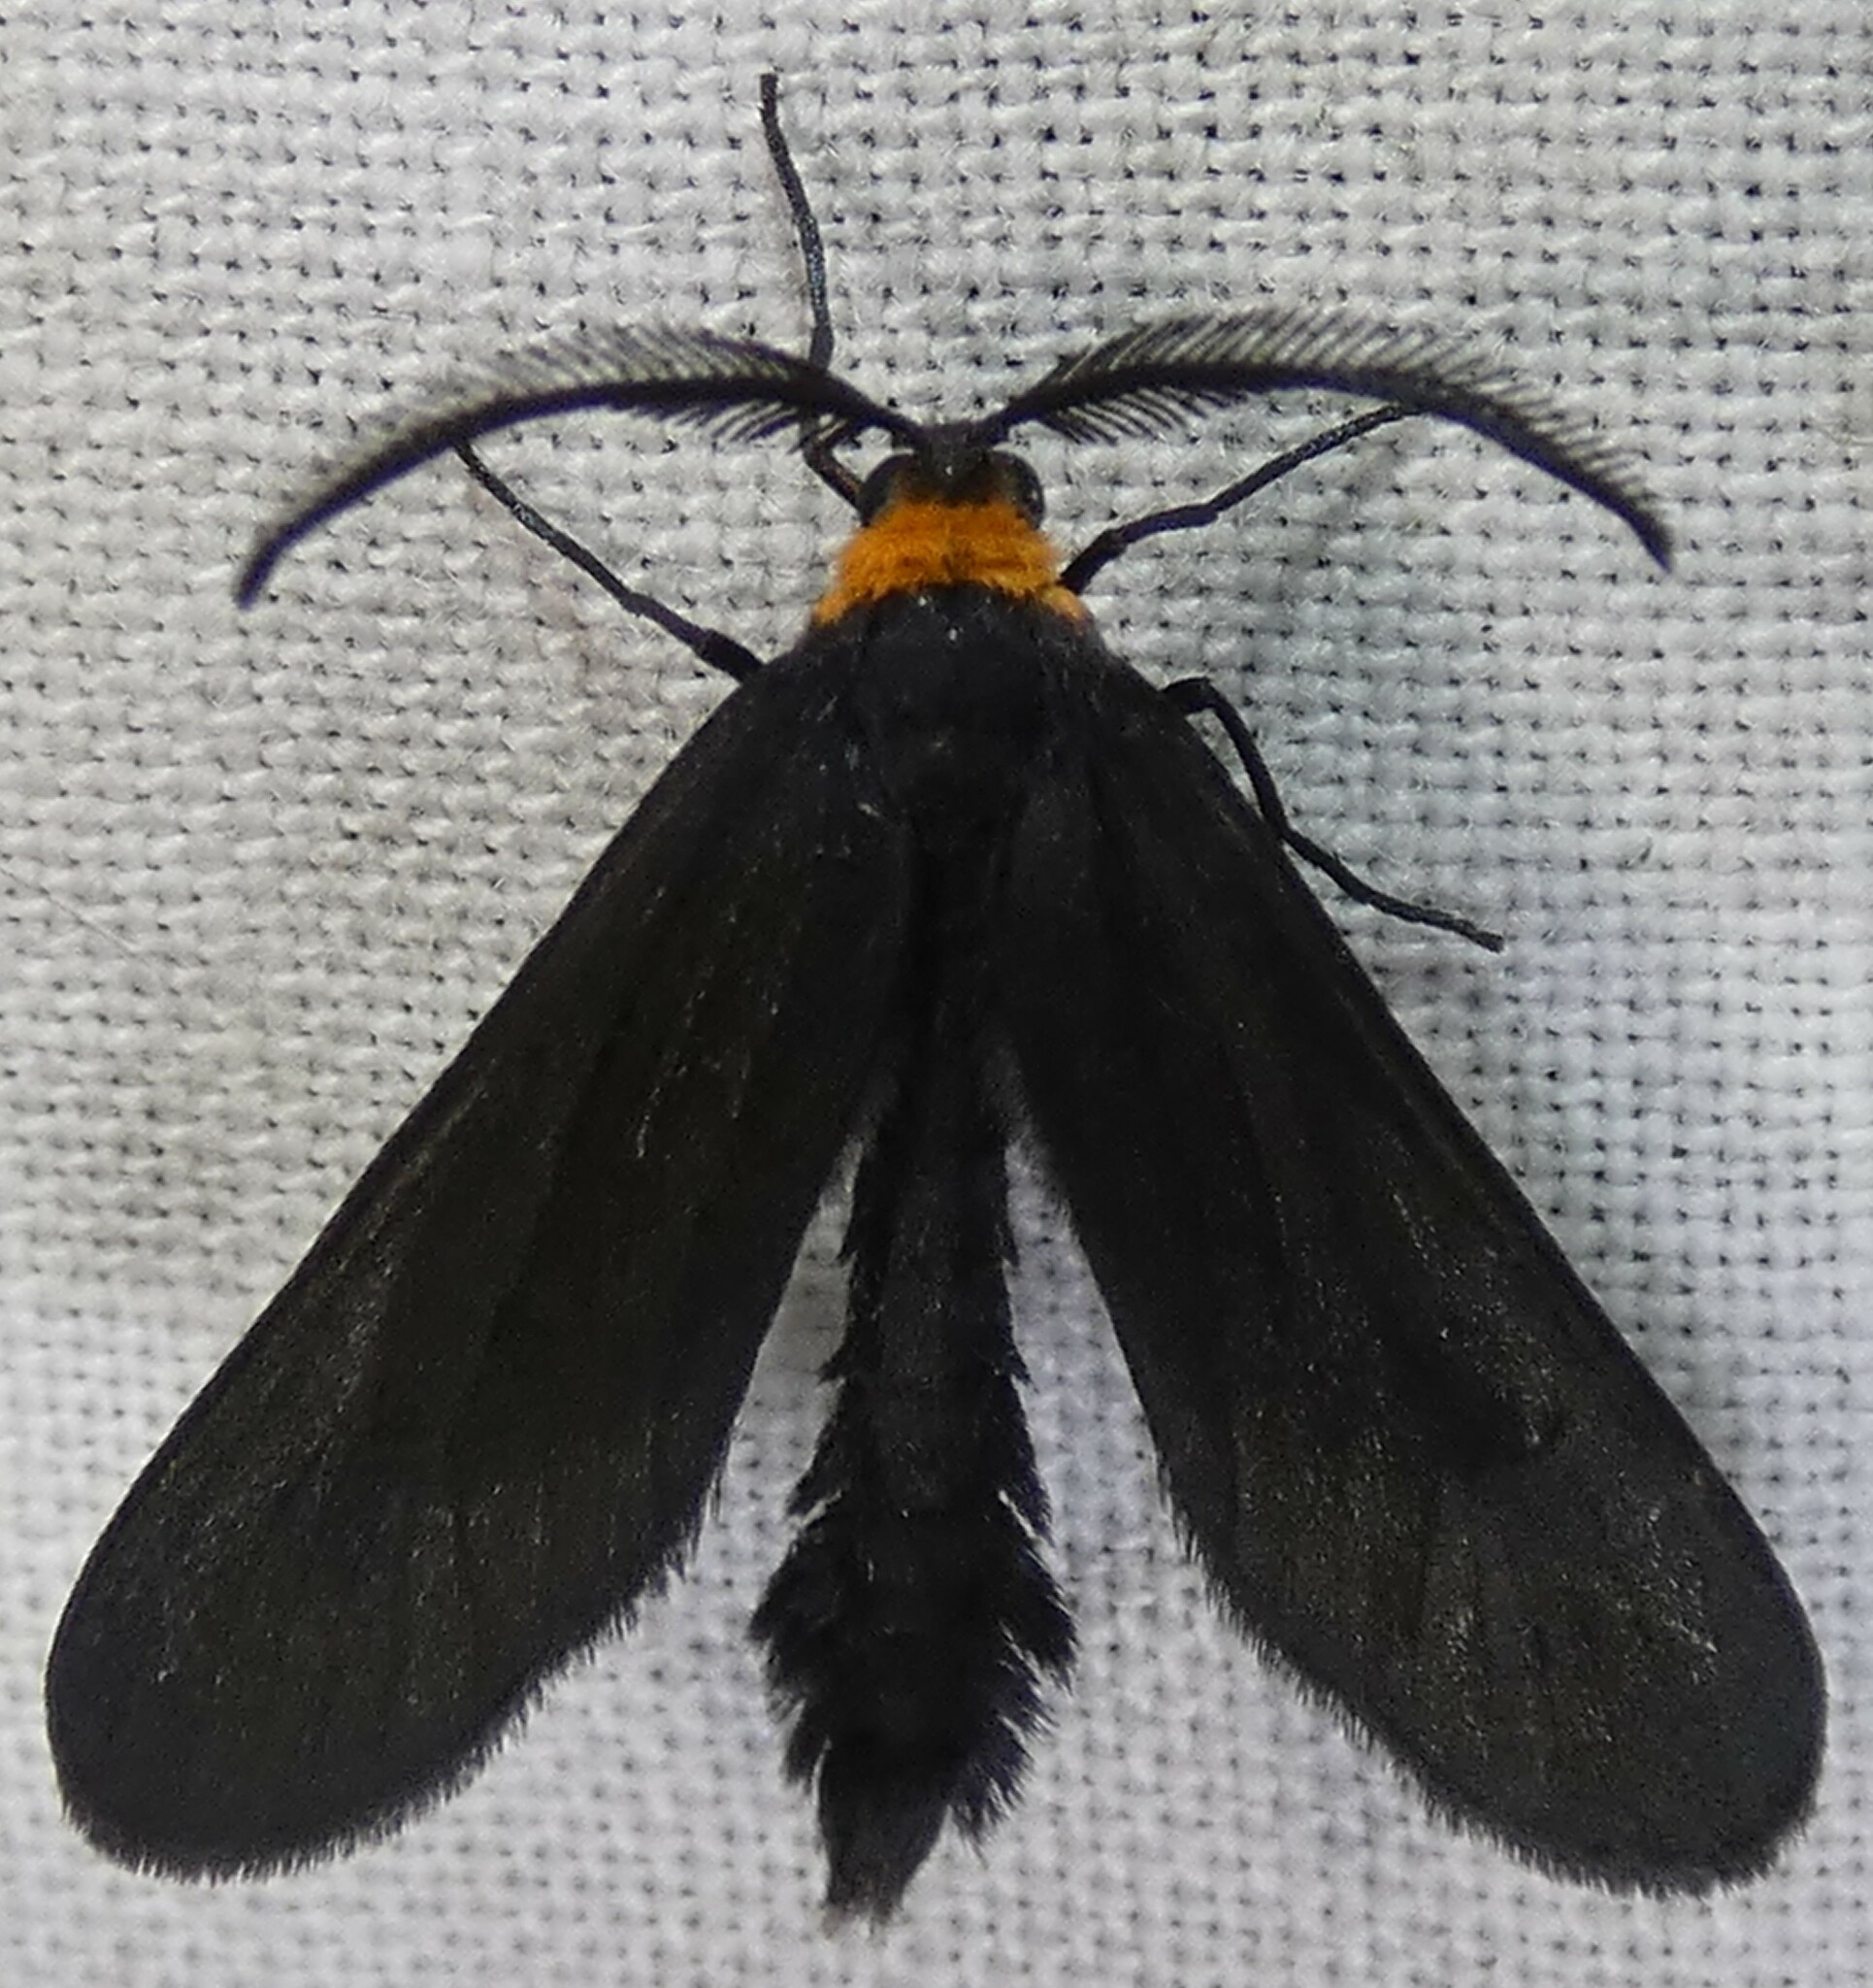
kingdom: Animalia
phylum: Arthropoda
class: Insecta
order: Lepidoptera
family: Zygaenidae
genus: Harrisina
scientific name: Harrisina americana
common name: Grapeleaf skeletonizer moth
